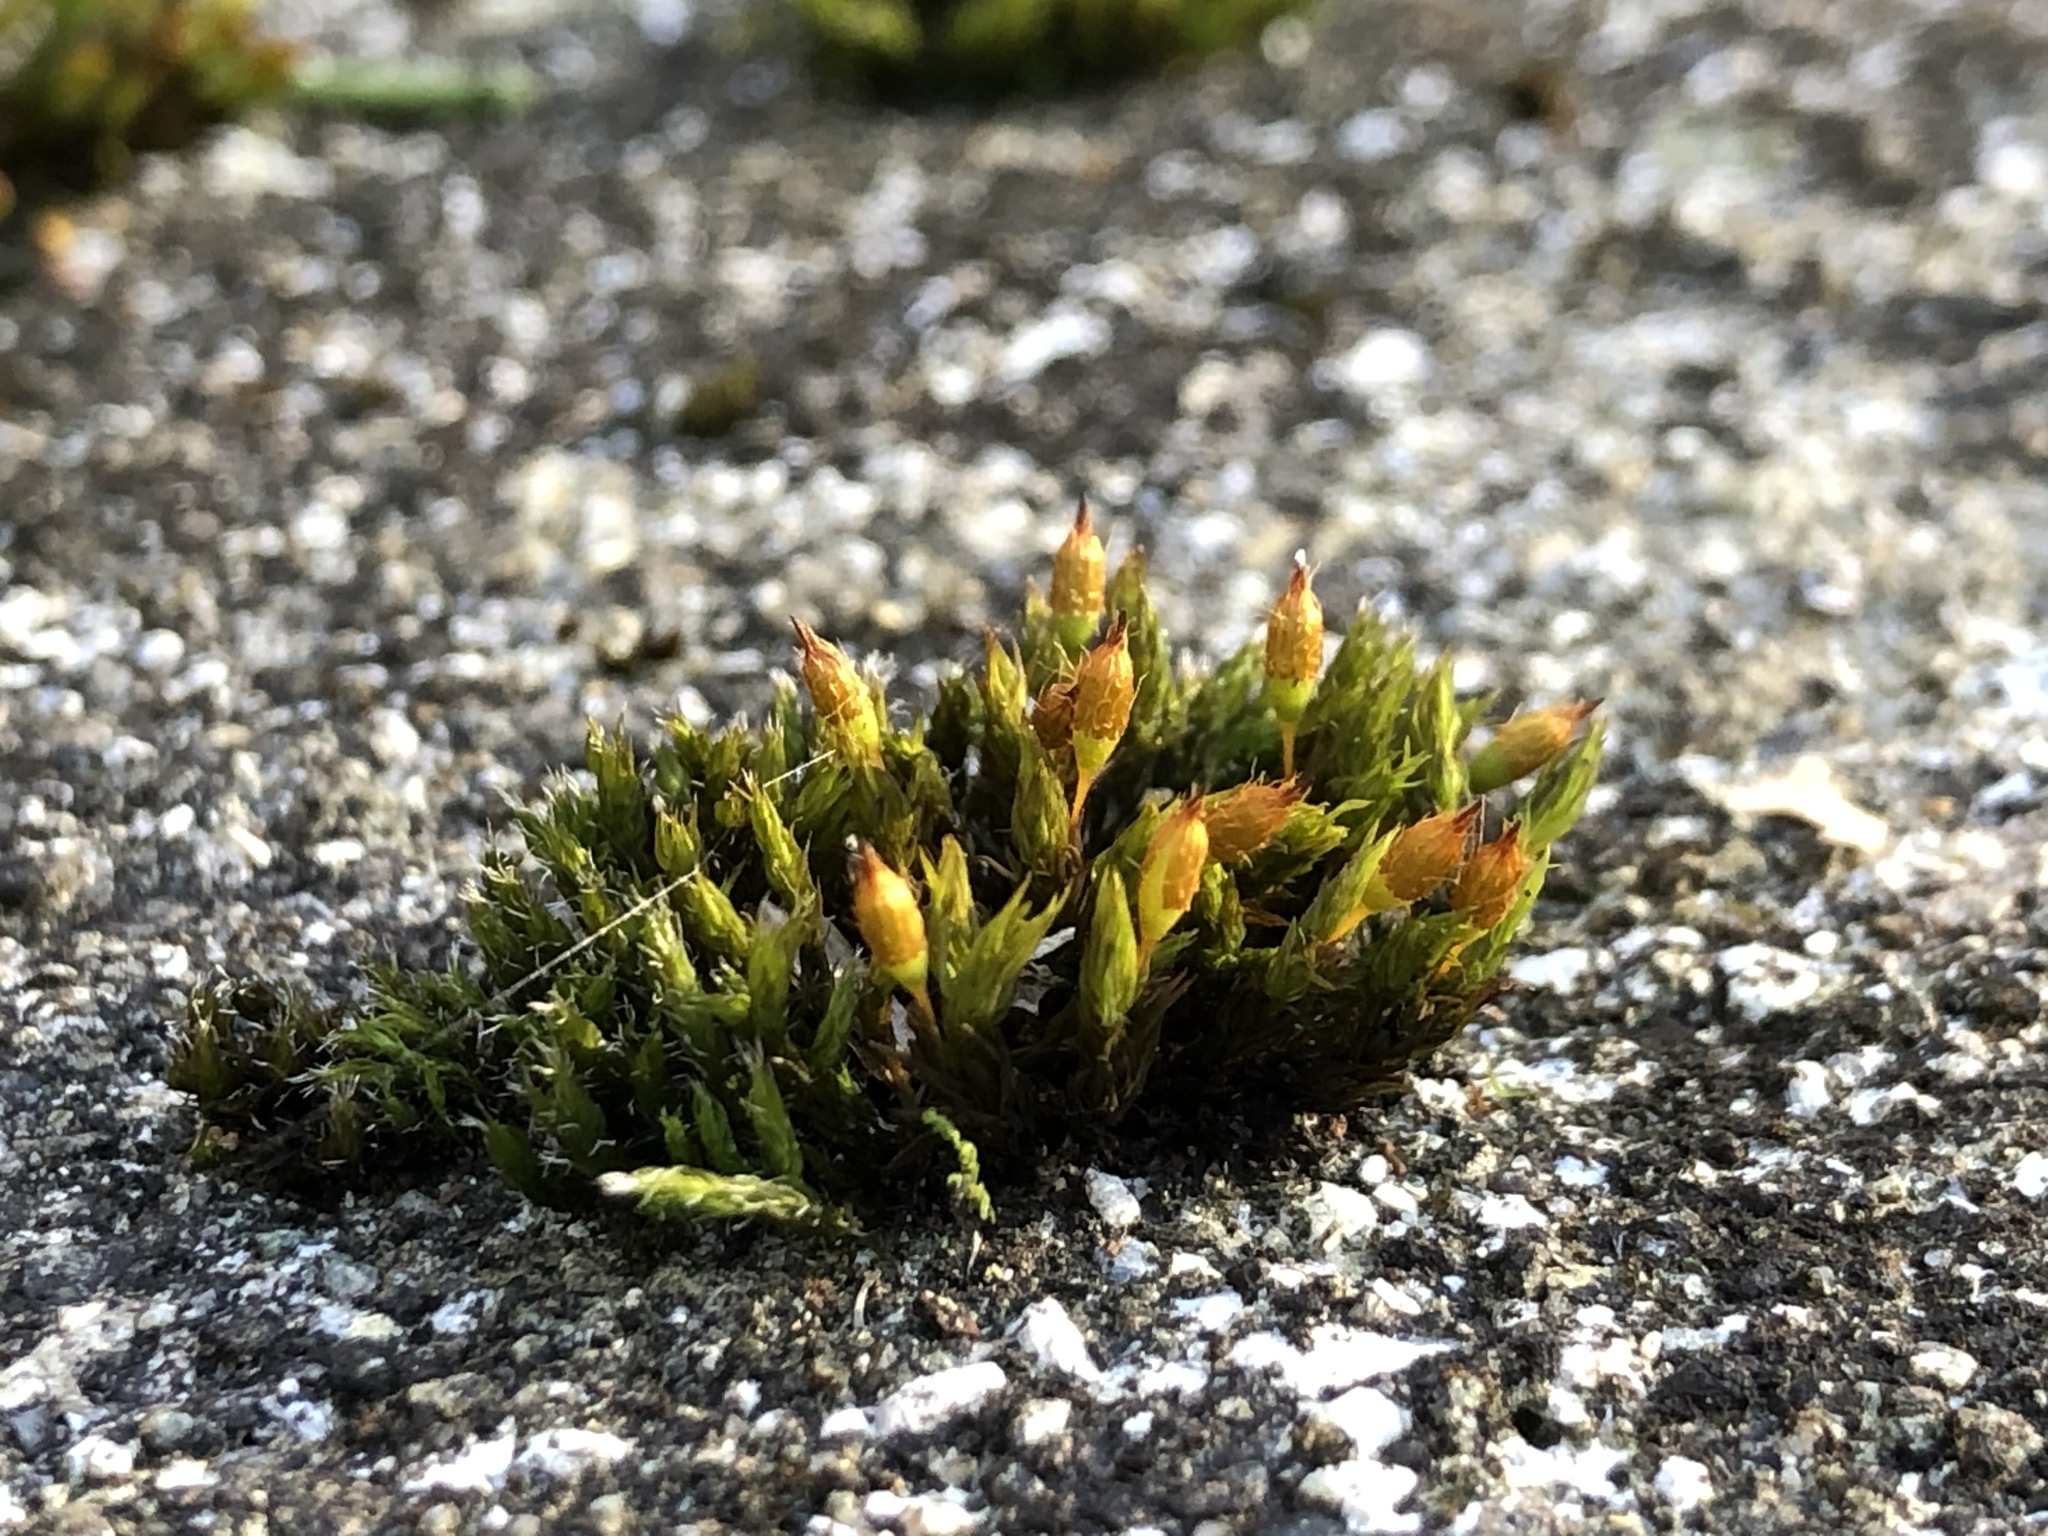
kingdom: Plantae
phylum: Bryophyta
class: Bryopsida
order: Orthotrichales
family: Orthotrichaceae
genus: Orthotrichum
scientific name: Orthotrichum anomalum
